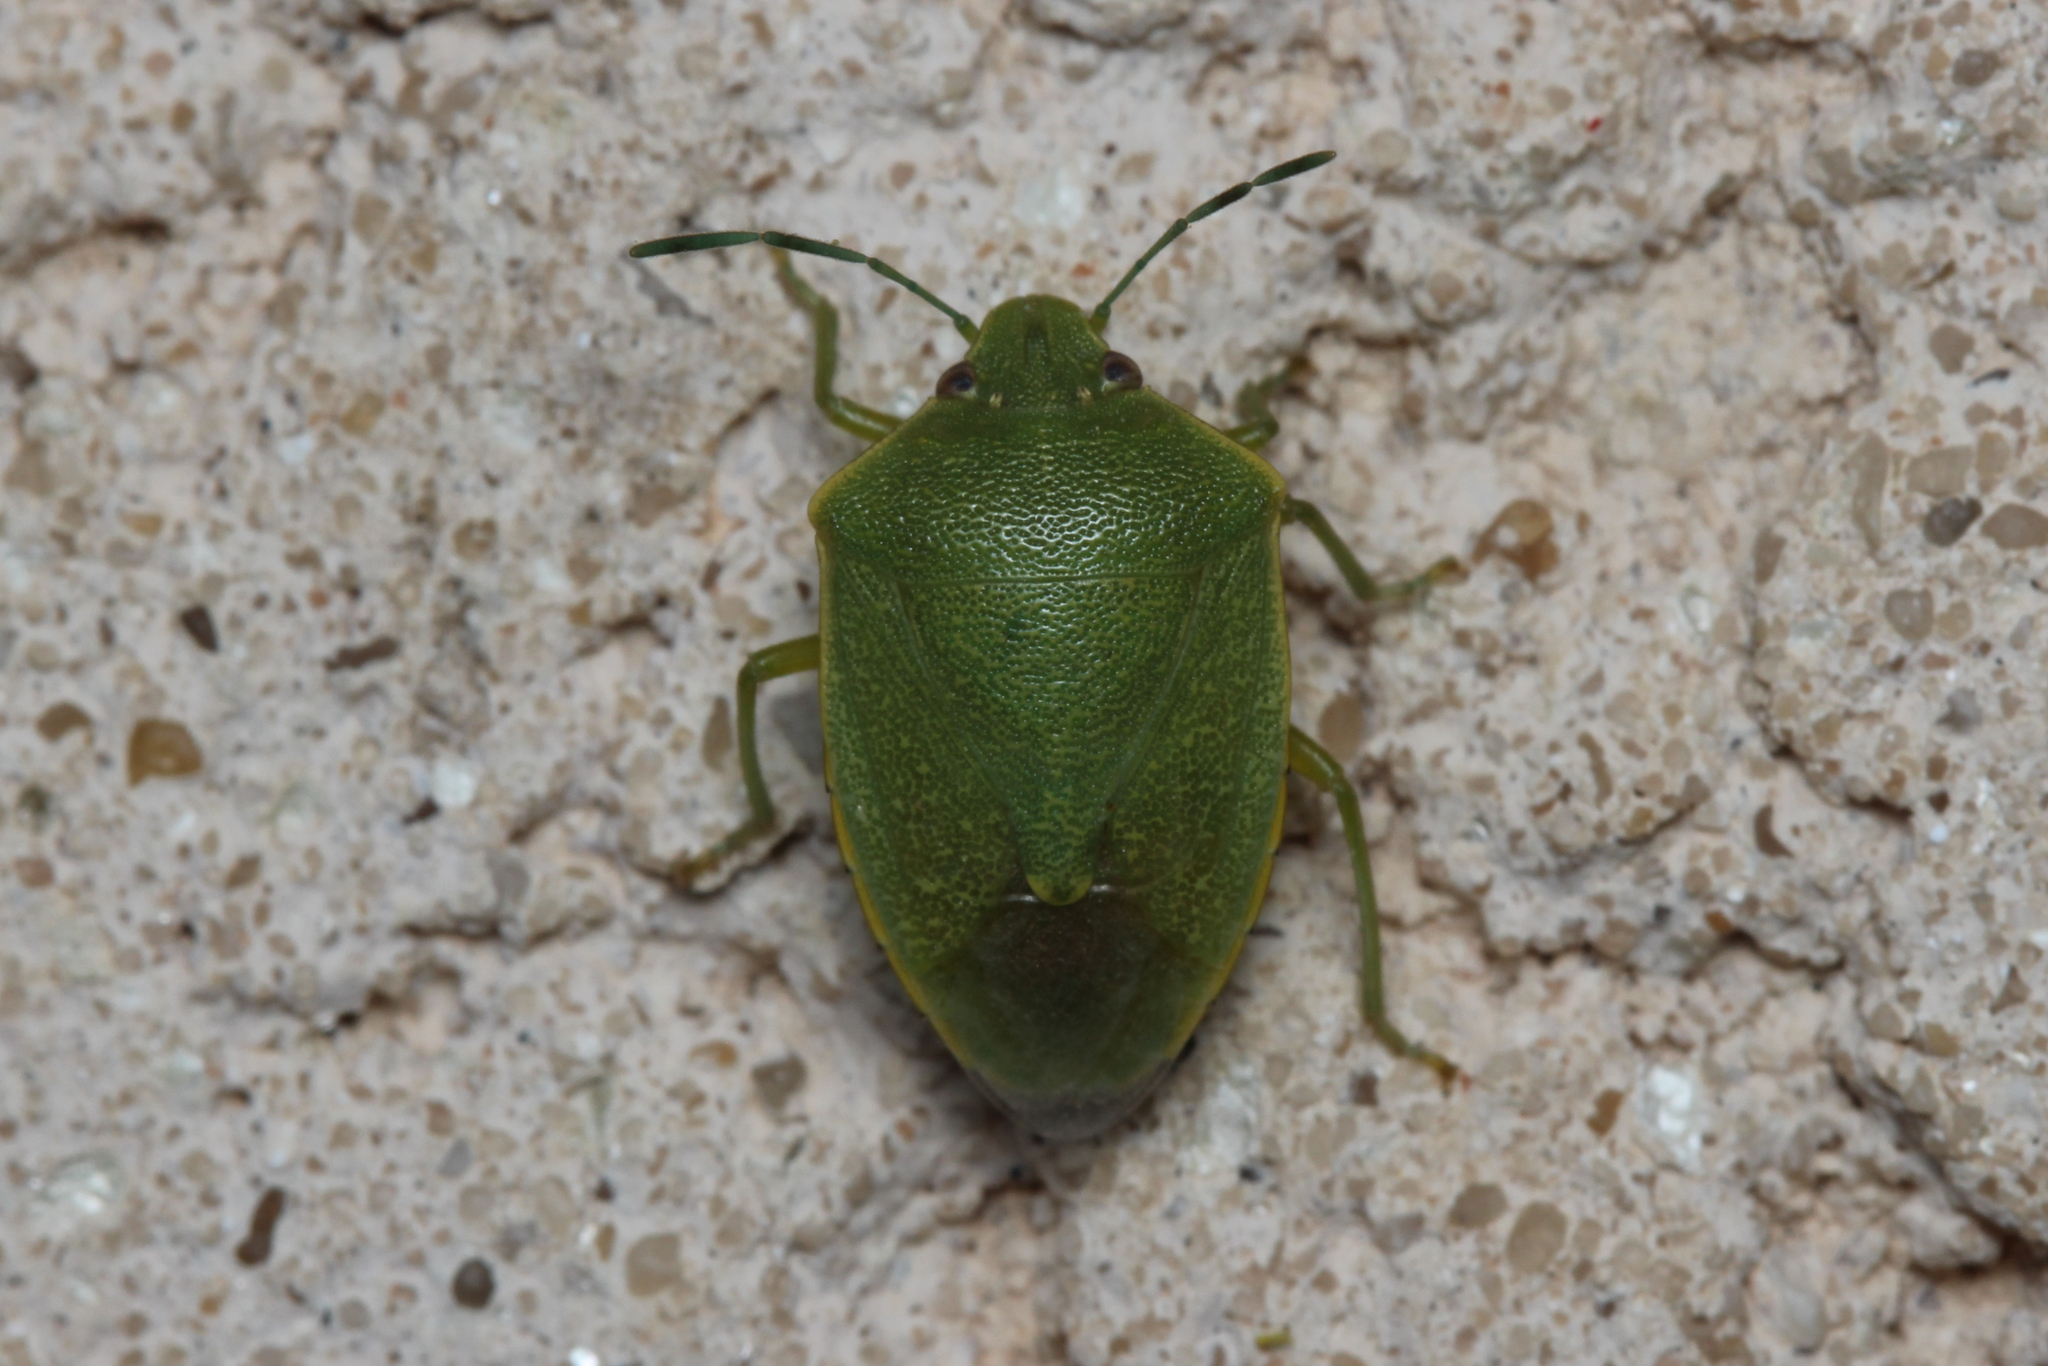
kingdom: Animalia
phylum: Arthropoda
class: Insecta
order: Hemiptera
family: Pentatomidae
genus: Acrosternum
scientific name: Acrosternum heegeri
